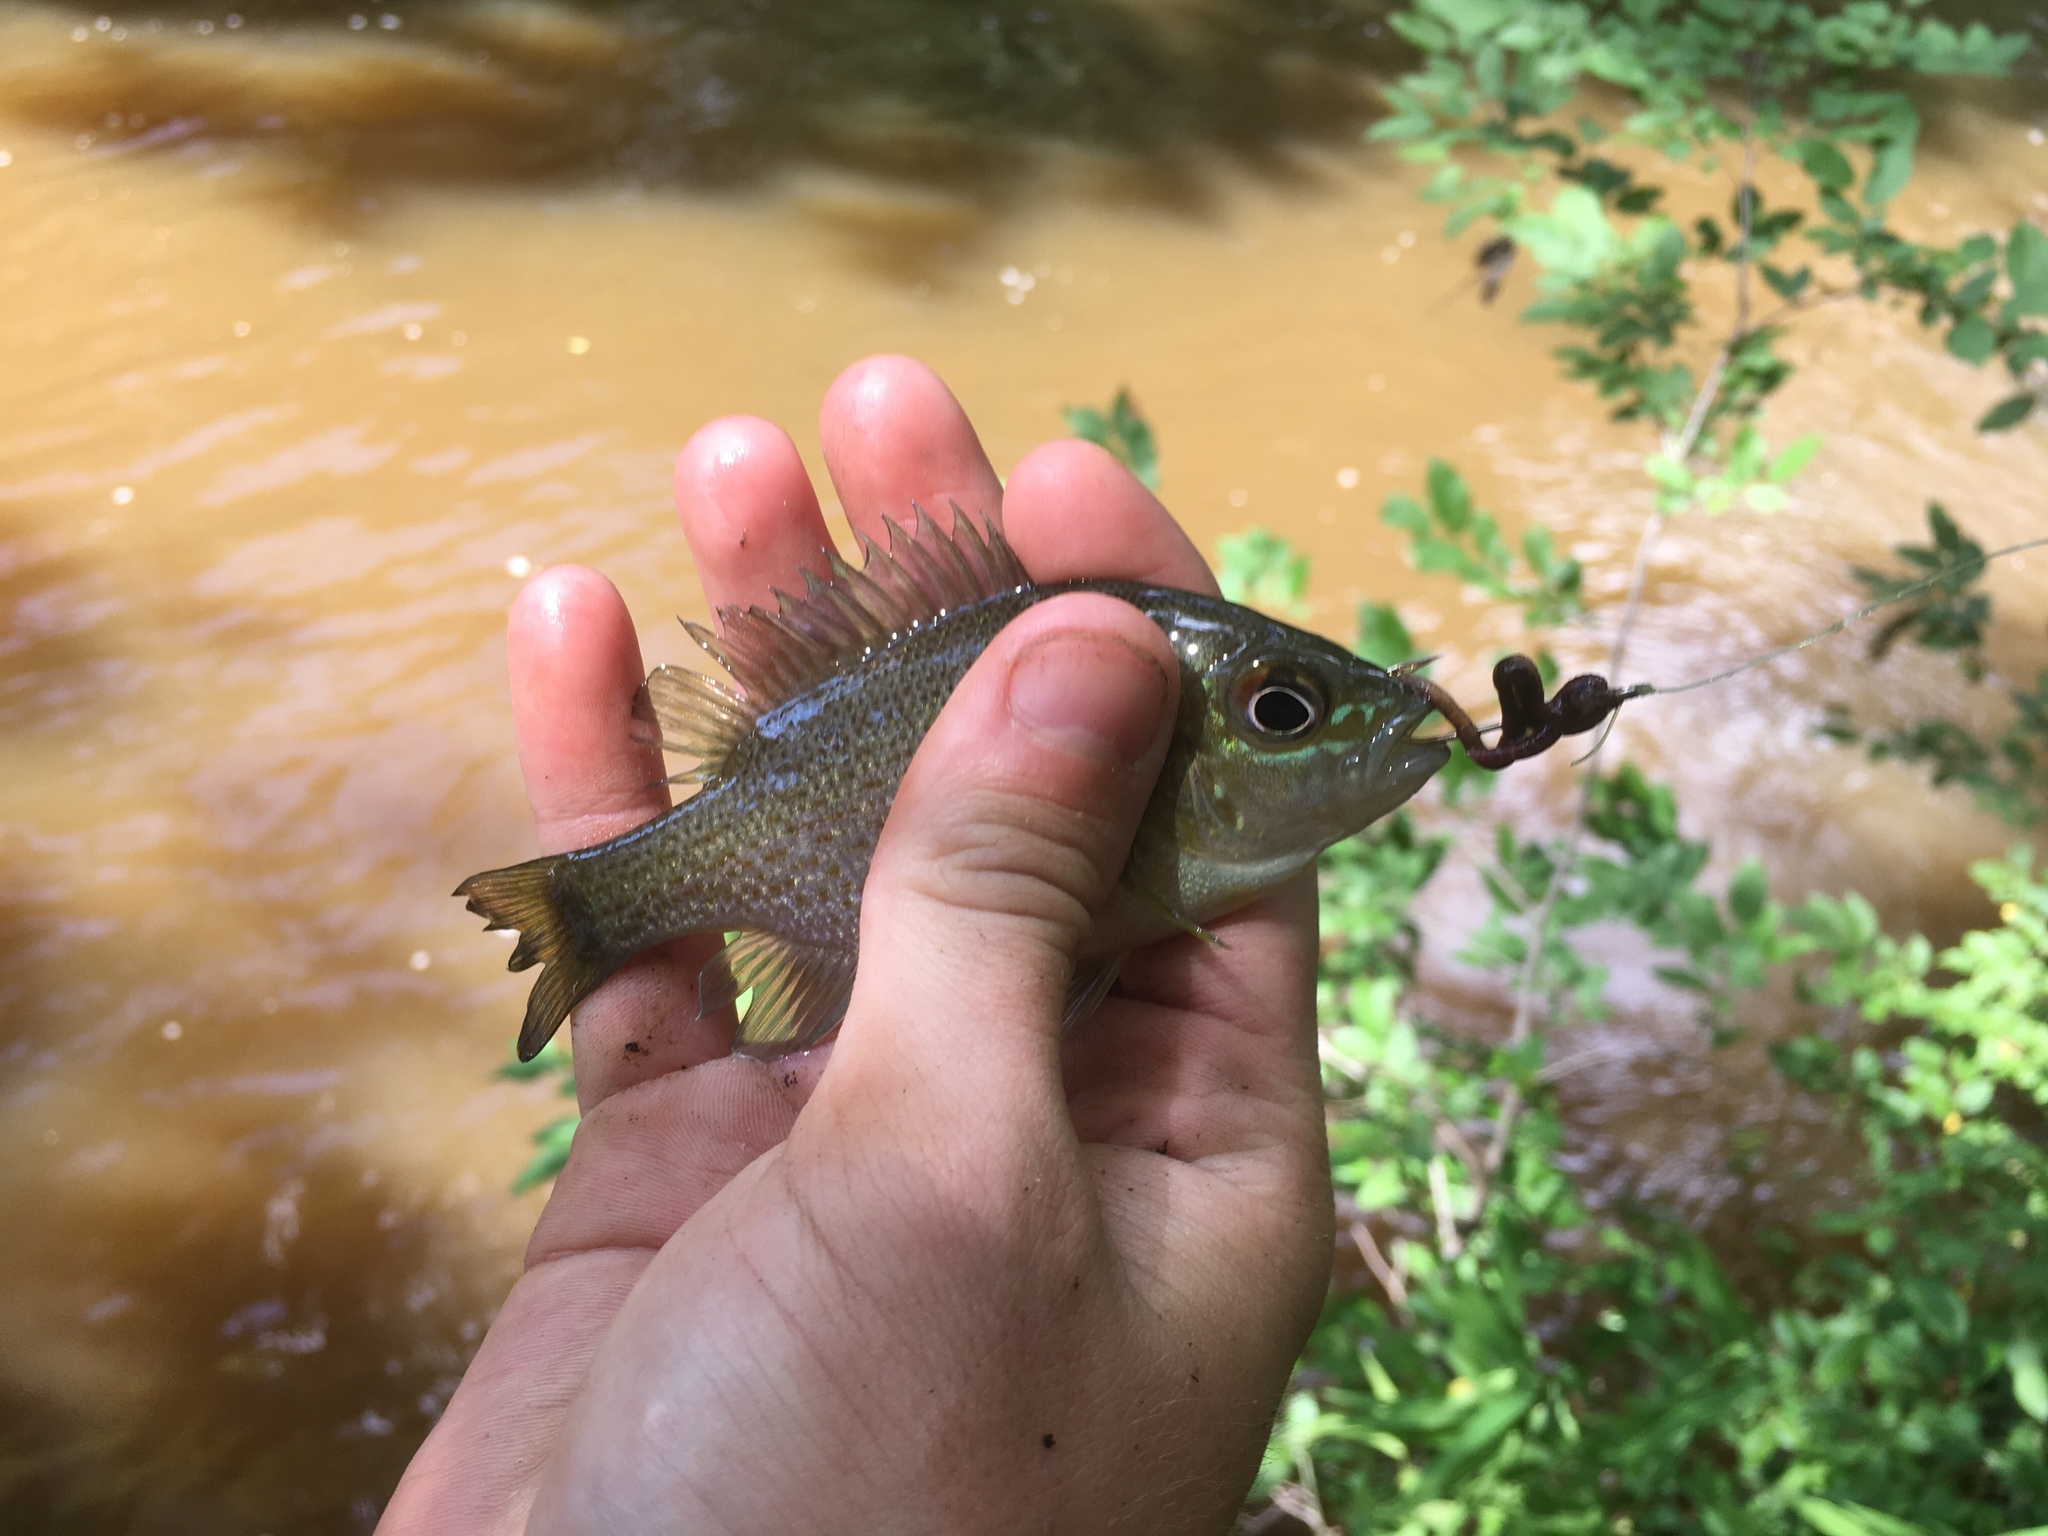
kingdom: Animalia
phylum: Chordata
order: Perciformes
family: Centrarchidae
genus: Lepomis
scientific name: Lepomis auritus
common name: Redbreast sunfish
